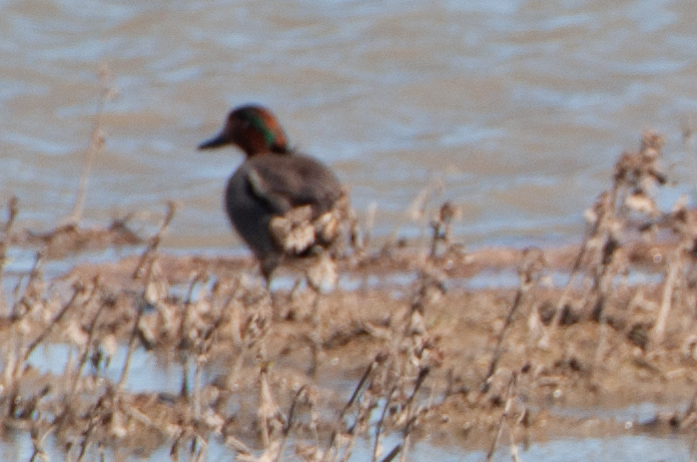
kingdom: Animalia
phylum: Chordata
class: Aves
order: Anseriformes
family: Anatidae
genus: Anas
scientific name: Anas crecca
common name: Eurasian teal
